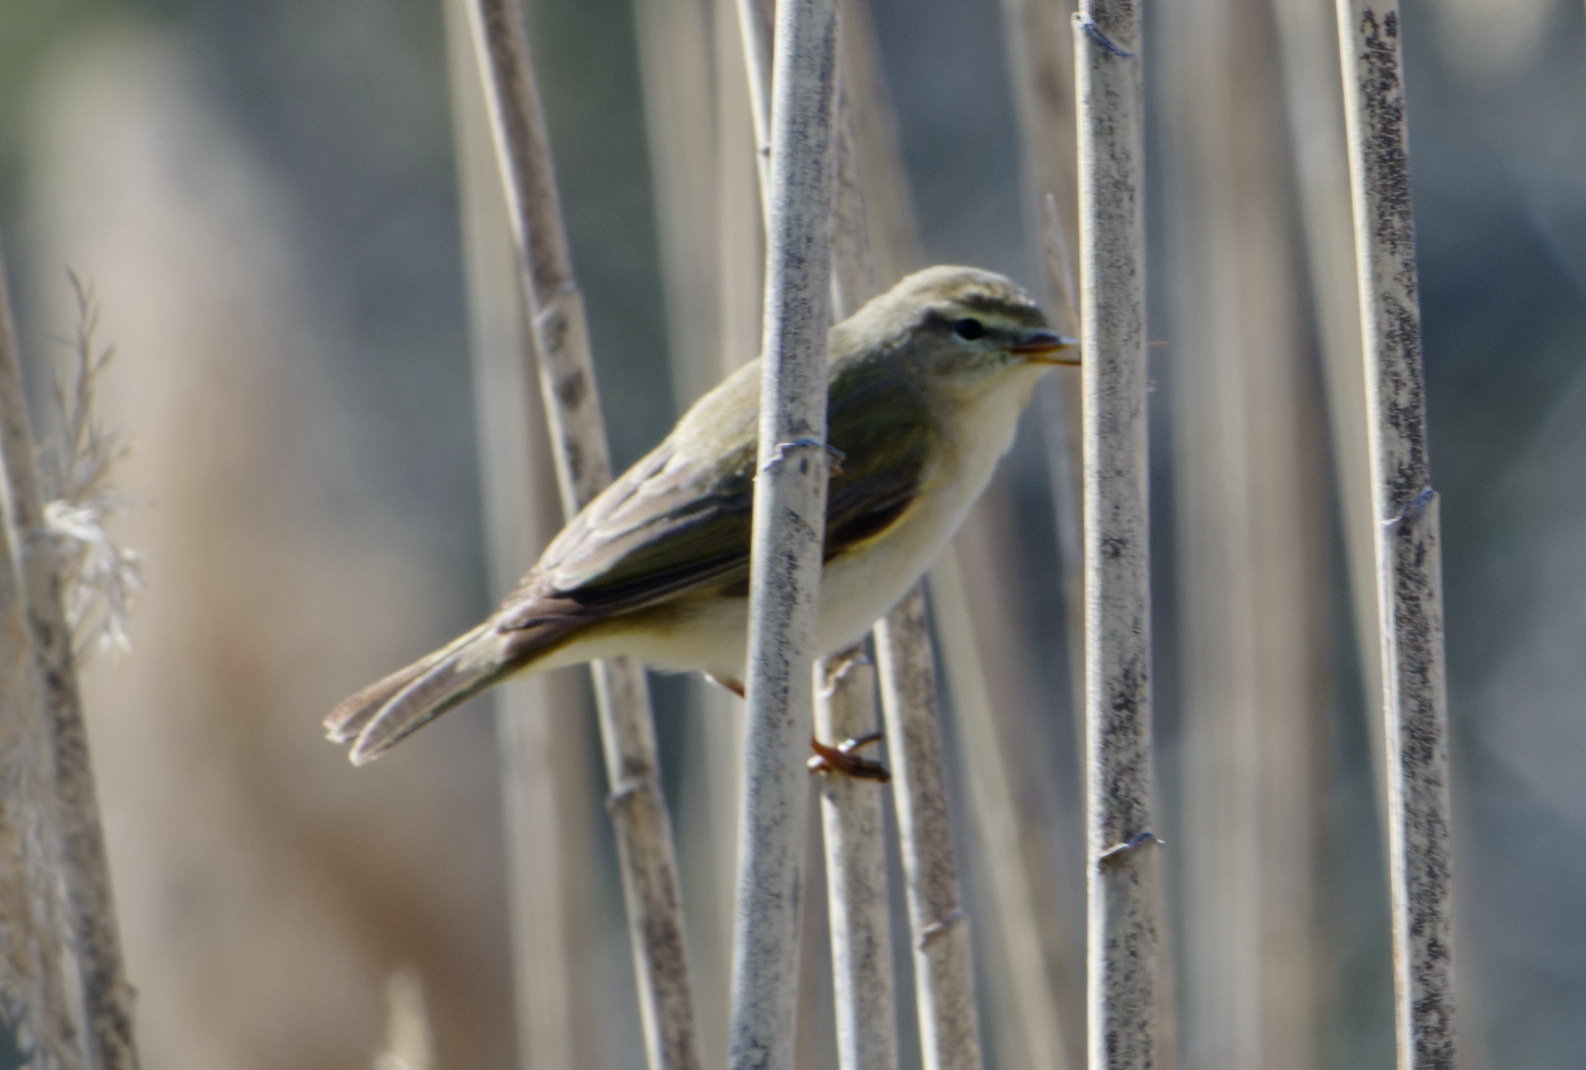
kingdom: Animalia
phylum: Chordata
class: Aves
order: Passeriformes
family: Phylloscopidae
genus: Phylloscopus
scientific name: Phylloscopus trochilus
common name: Willow warbler
